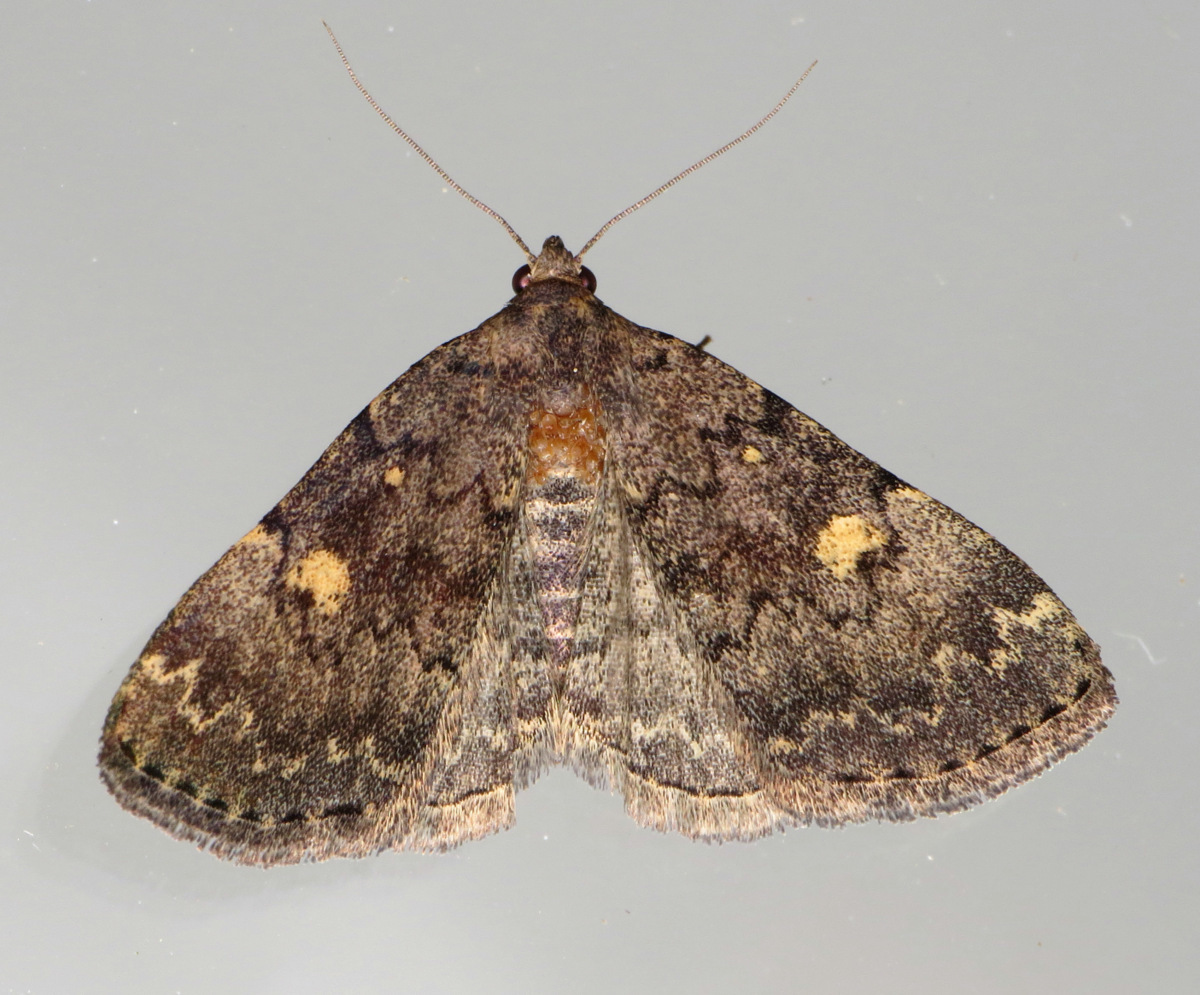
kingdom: Animalia
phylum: Arthropoda
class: Insecta
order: Lepidoptera
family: Erebidae
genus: Idia
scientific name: Idia aemula
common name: Common idia moth
